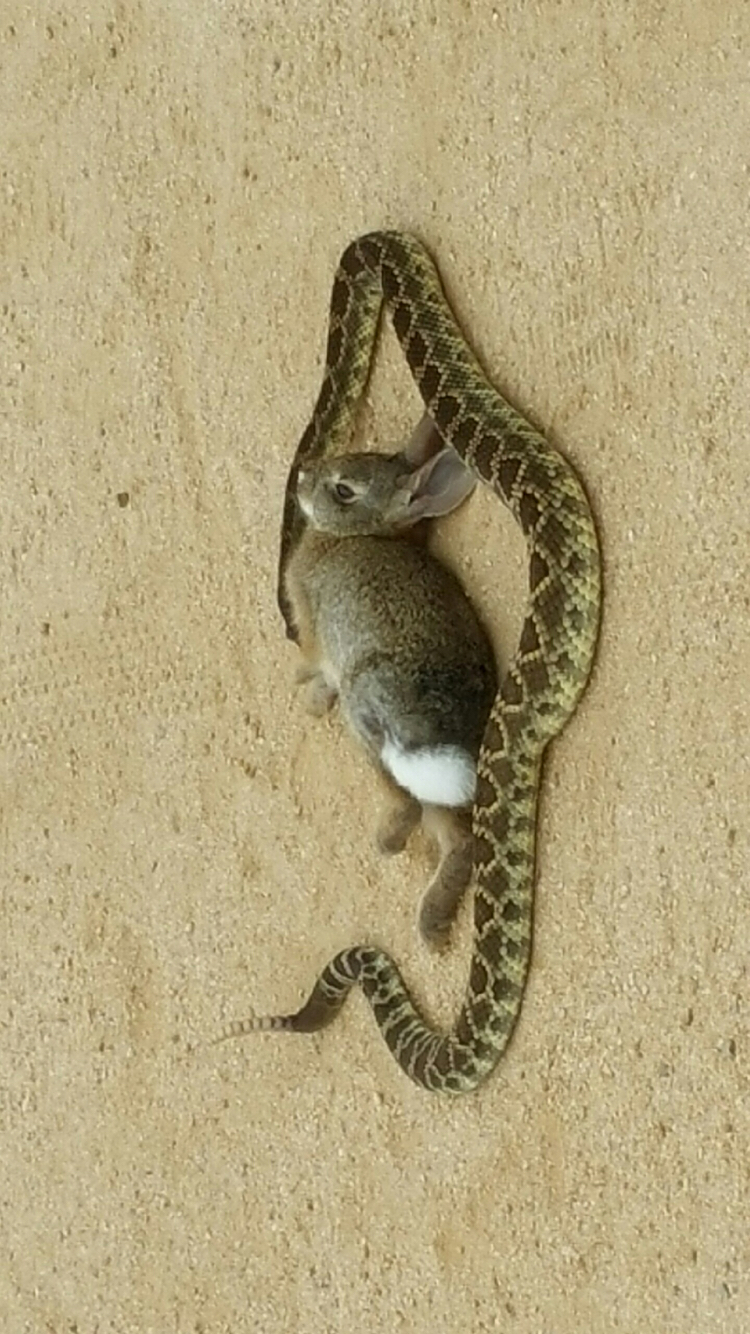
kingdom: Animalia
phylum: Chordata
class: Squamata
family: Viperidae
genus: Crotalus
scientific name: Crotalus oreganus
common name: Abyssus
